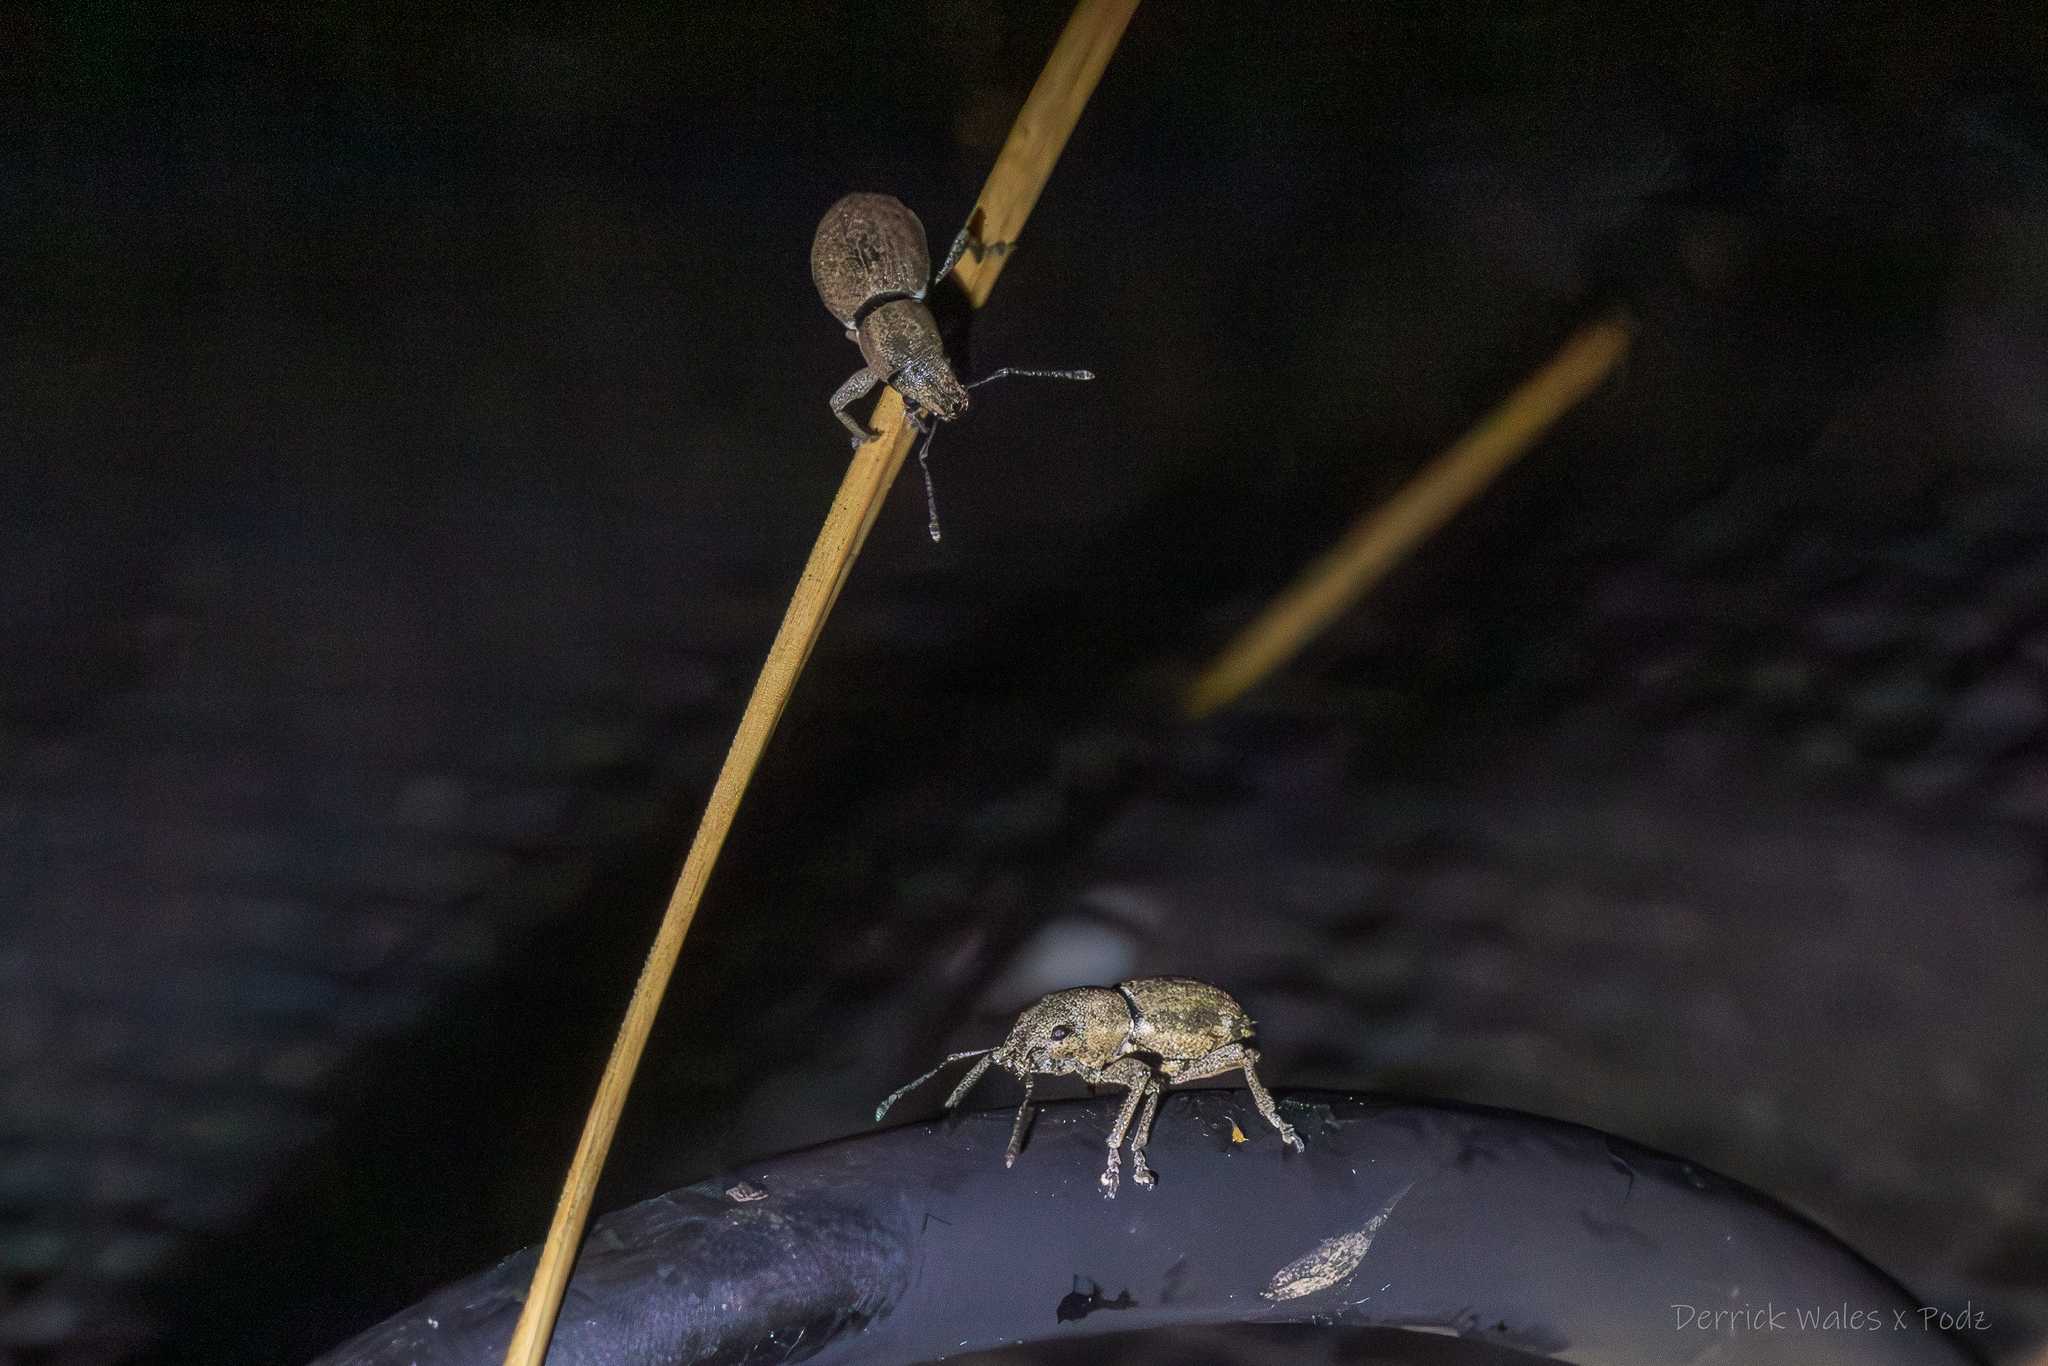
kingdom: Animalia
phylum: Arthropoda
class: Insecta
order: Coleoptera
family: Curculionidae
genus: Naupactus
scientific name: Naupactus cervinus
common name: Fuller rose beetle
